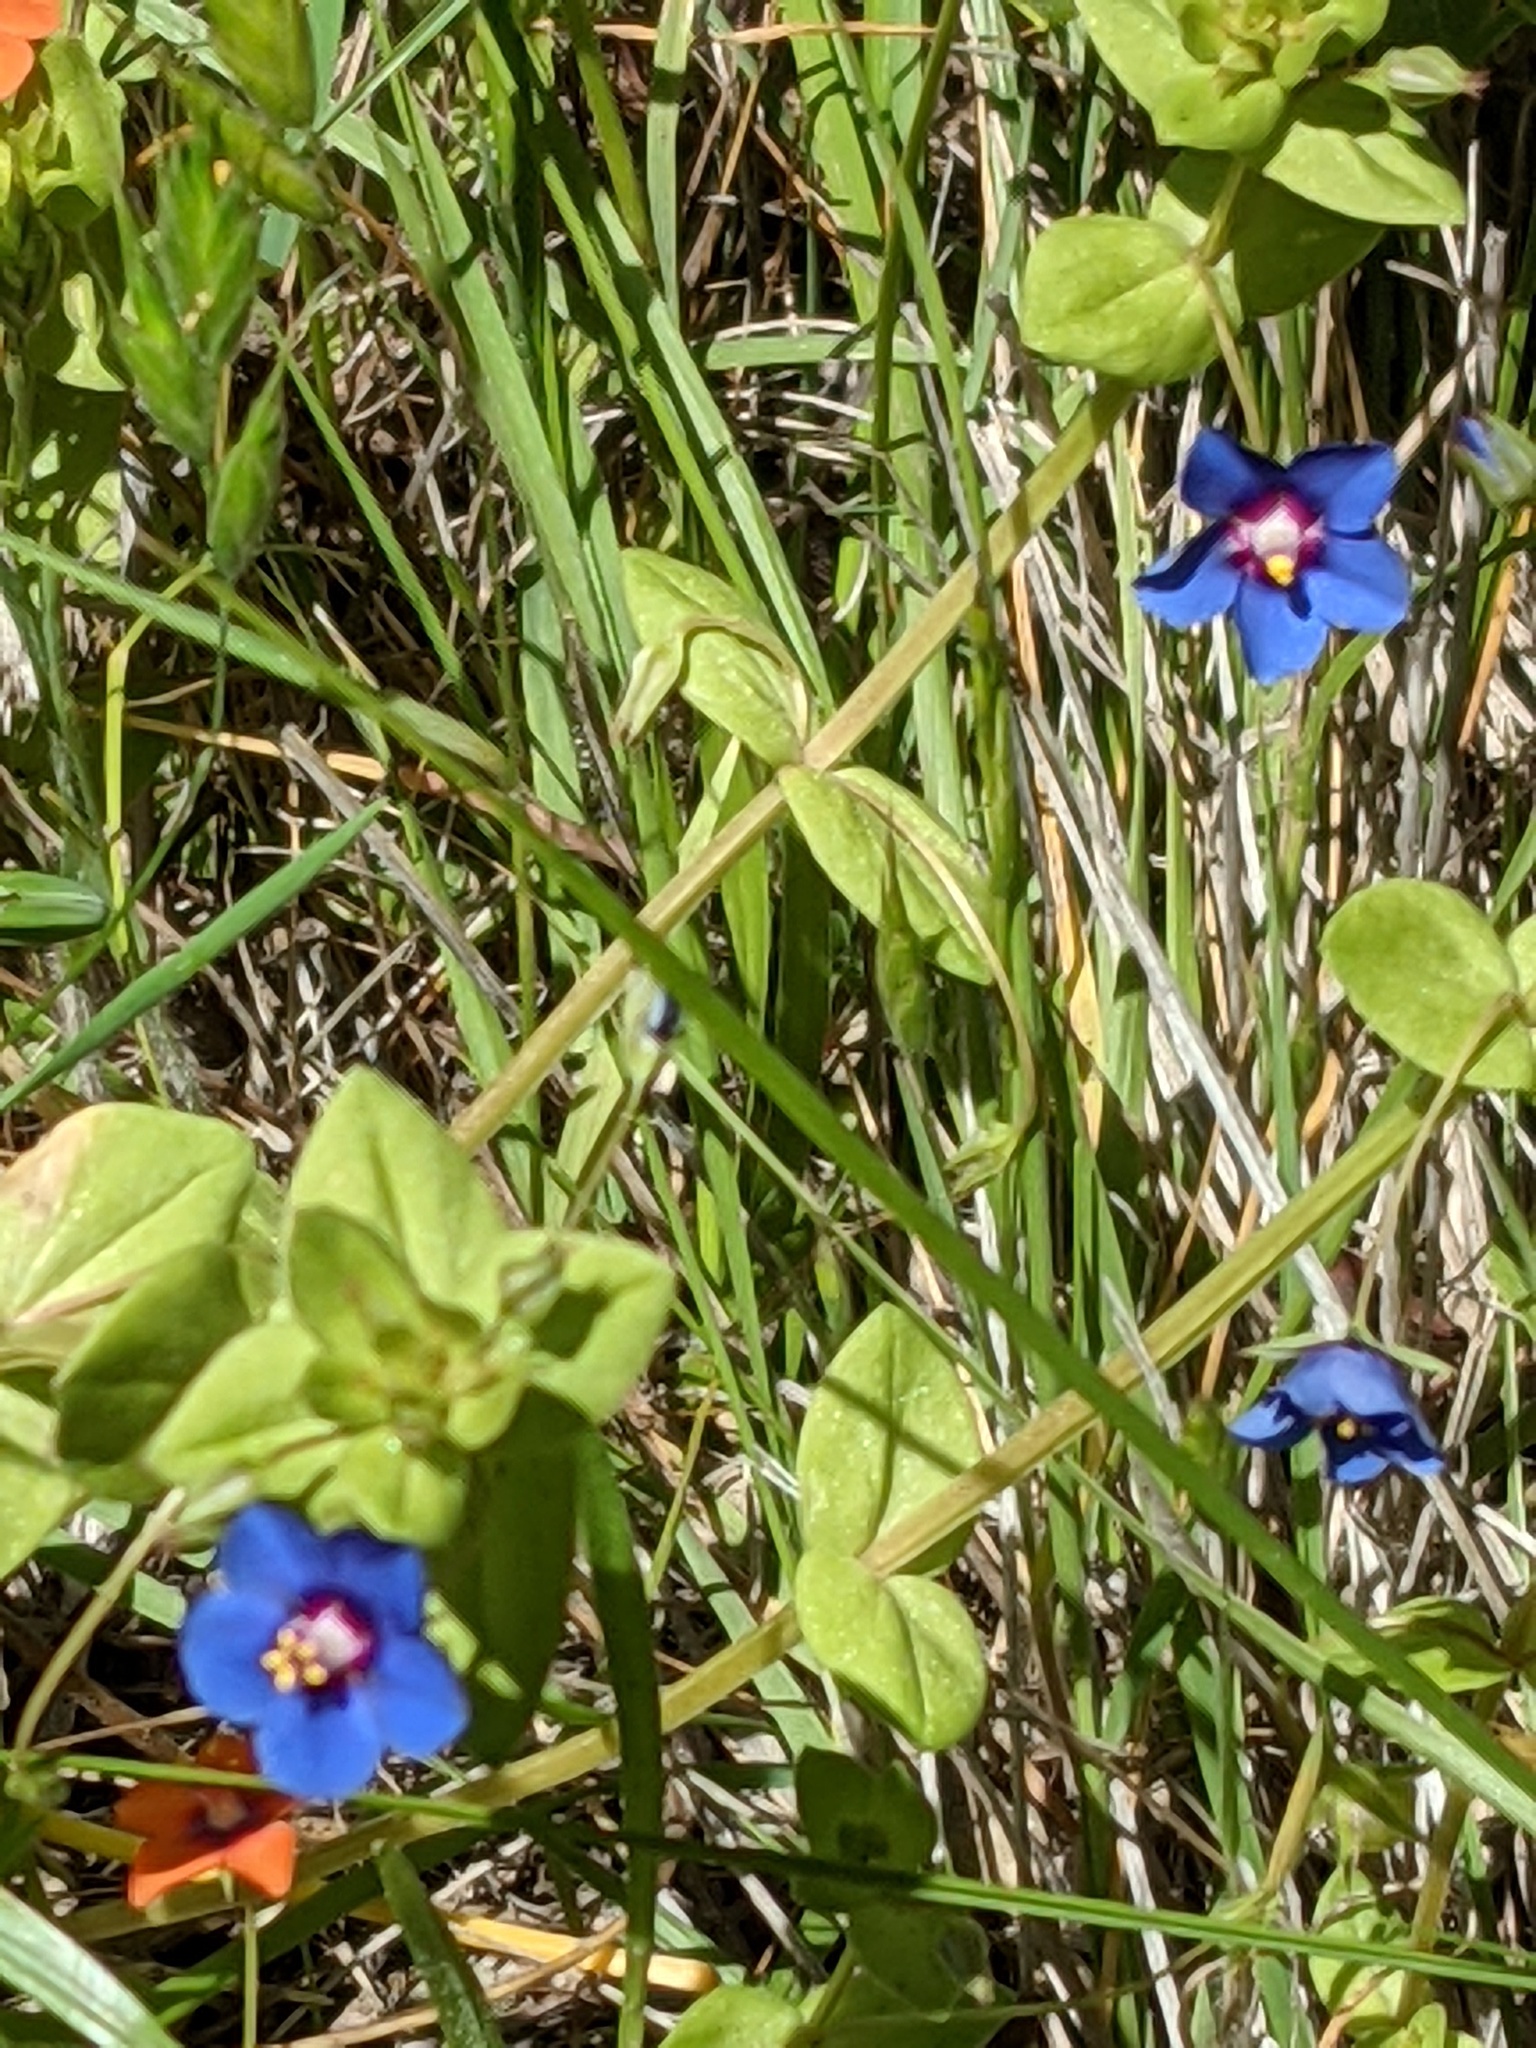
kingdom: Plantae
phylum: Tracheophyta
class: Magnoliopsida
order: Ericales
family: Primulaceae
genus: Lysimachia
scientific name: Lysimachia arvensis
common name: Scarlet pimpernel
